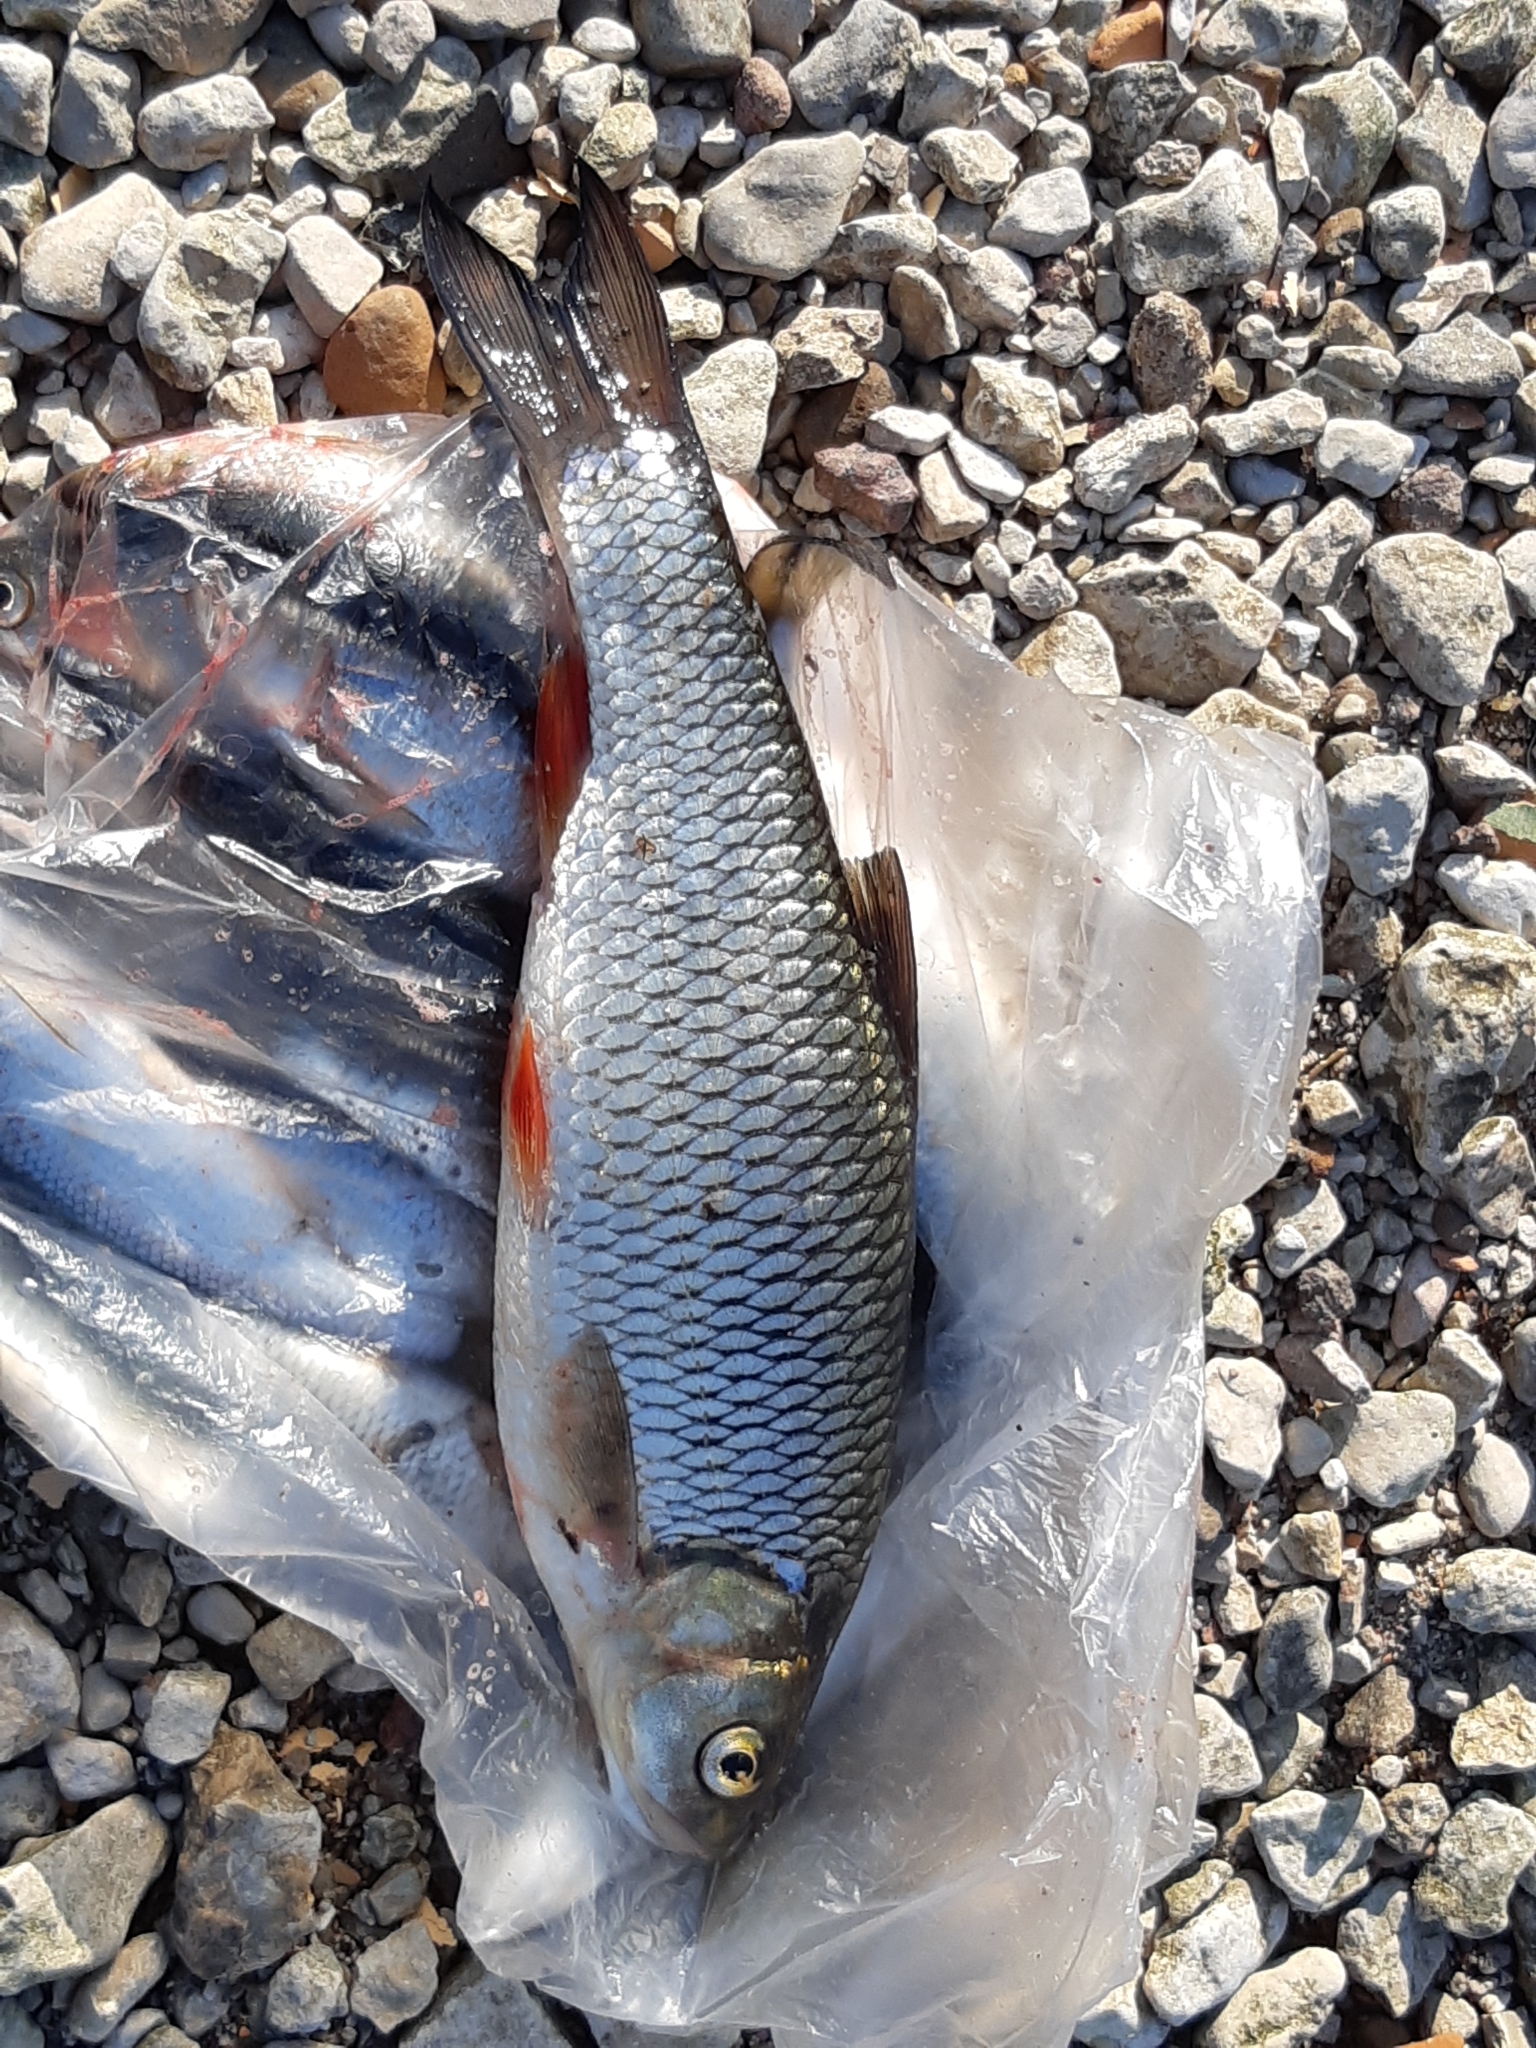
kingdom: Animalia
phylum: Chordata
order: Cypriniformes
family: Cyprinidae
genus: Squalius
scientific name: Squalius cephalus
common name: Chub
